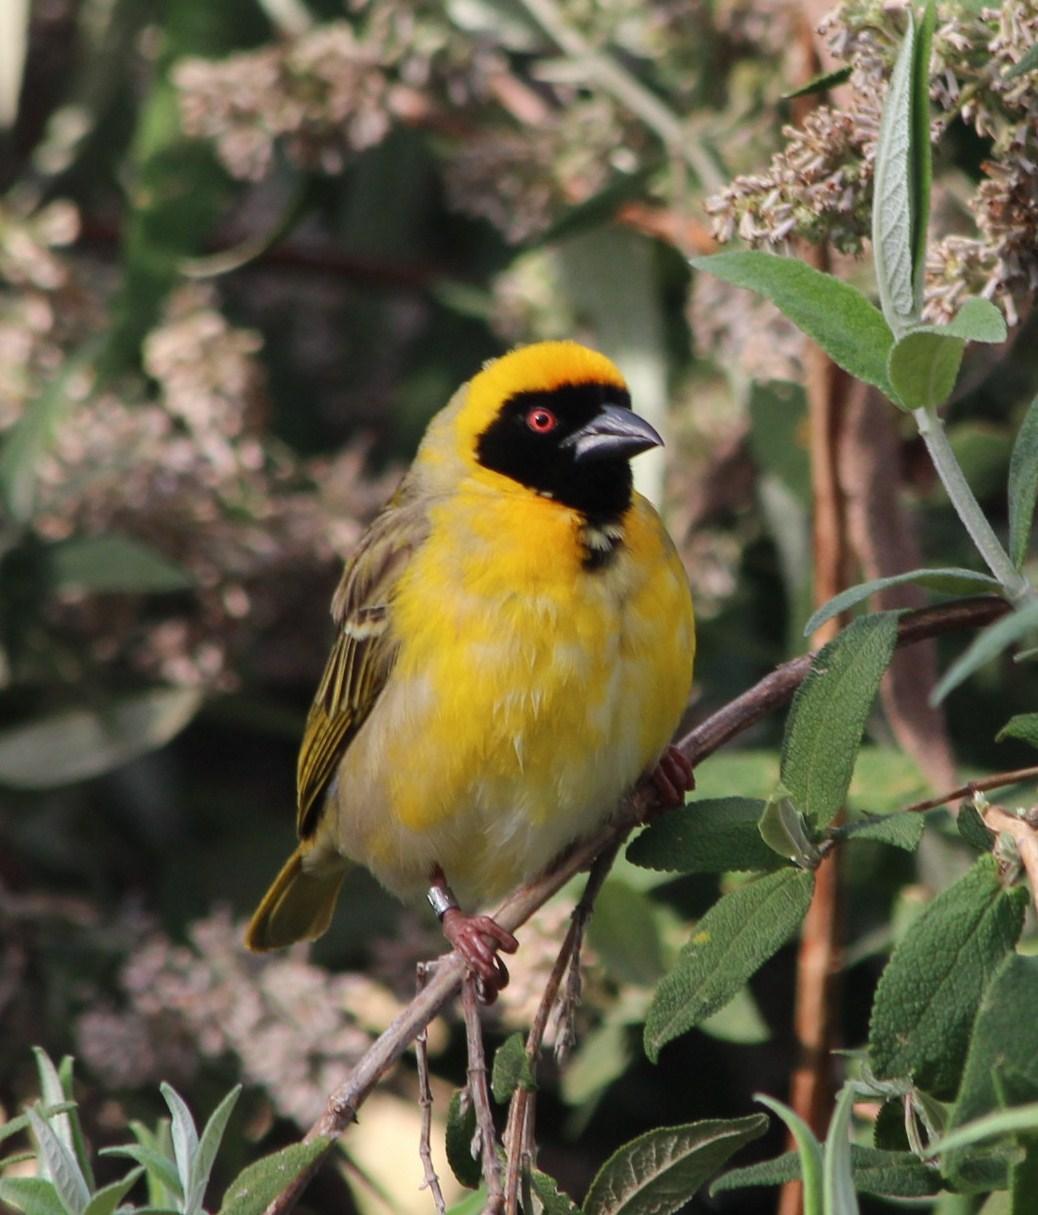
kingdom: Animalia
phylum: Chordata
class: Aves
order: Passeriformes
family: Ploceidae
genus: Ploceus
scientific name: Ploceus velatus
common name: Southern masked weaver
